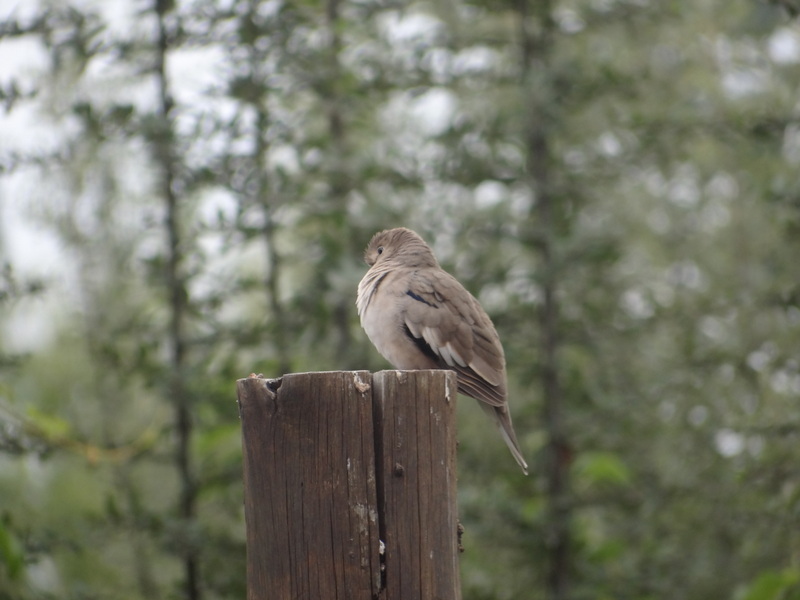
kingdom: Animalia
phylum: Chordata
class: Aves
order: Columbiformes
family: Columbidae
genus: Columbina
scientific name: Columbina picui
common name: Picui ground dove
